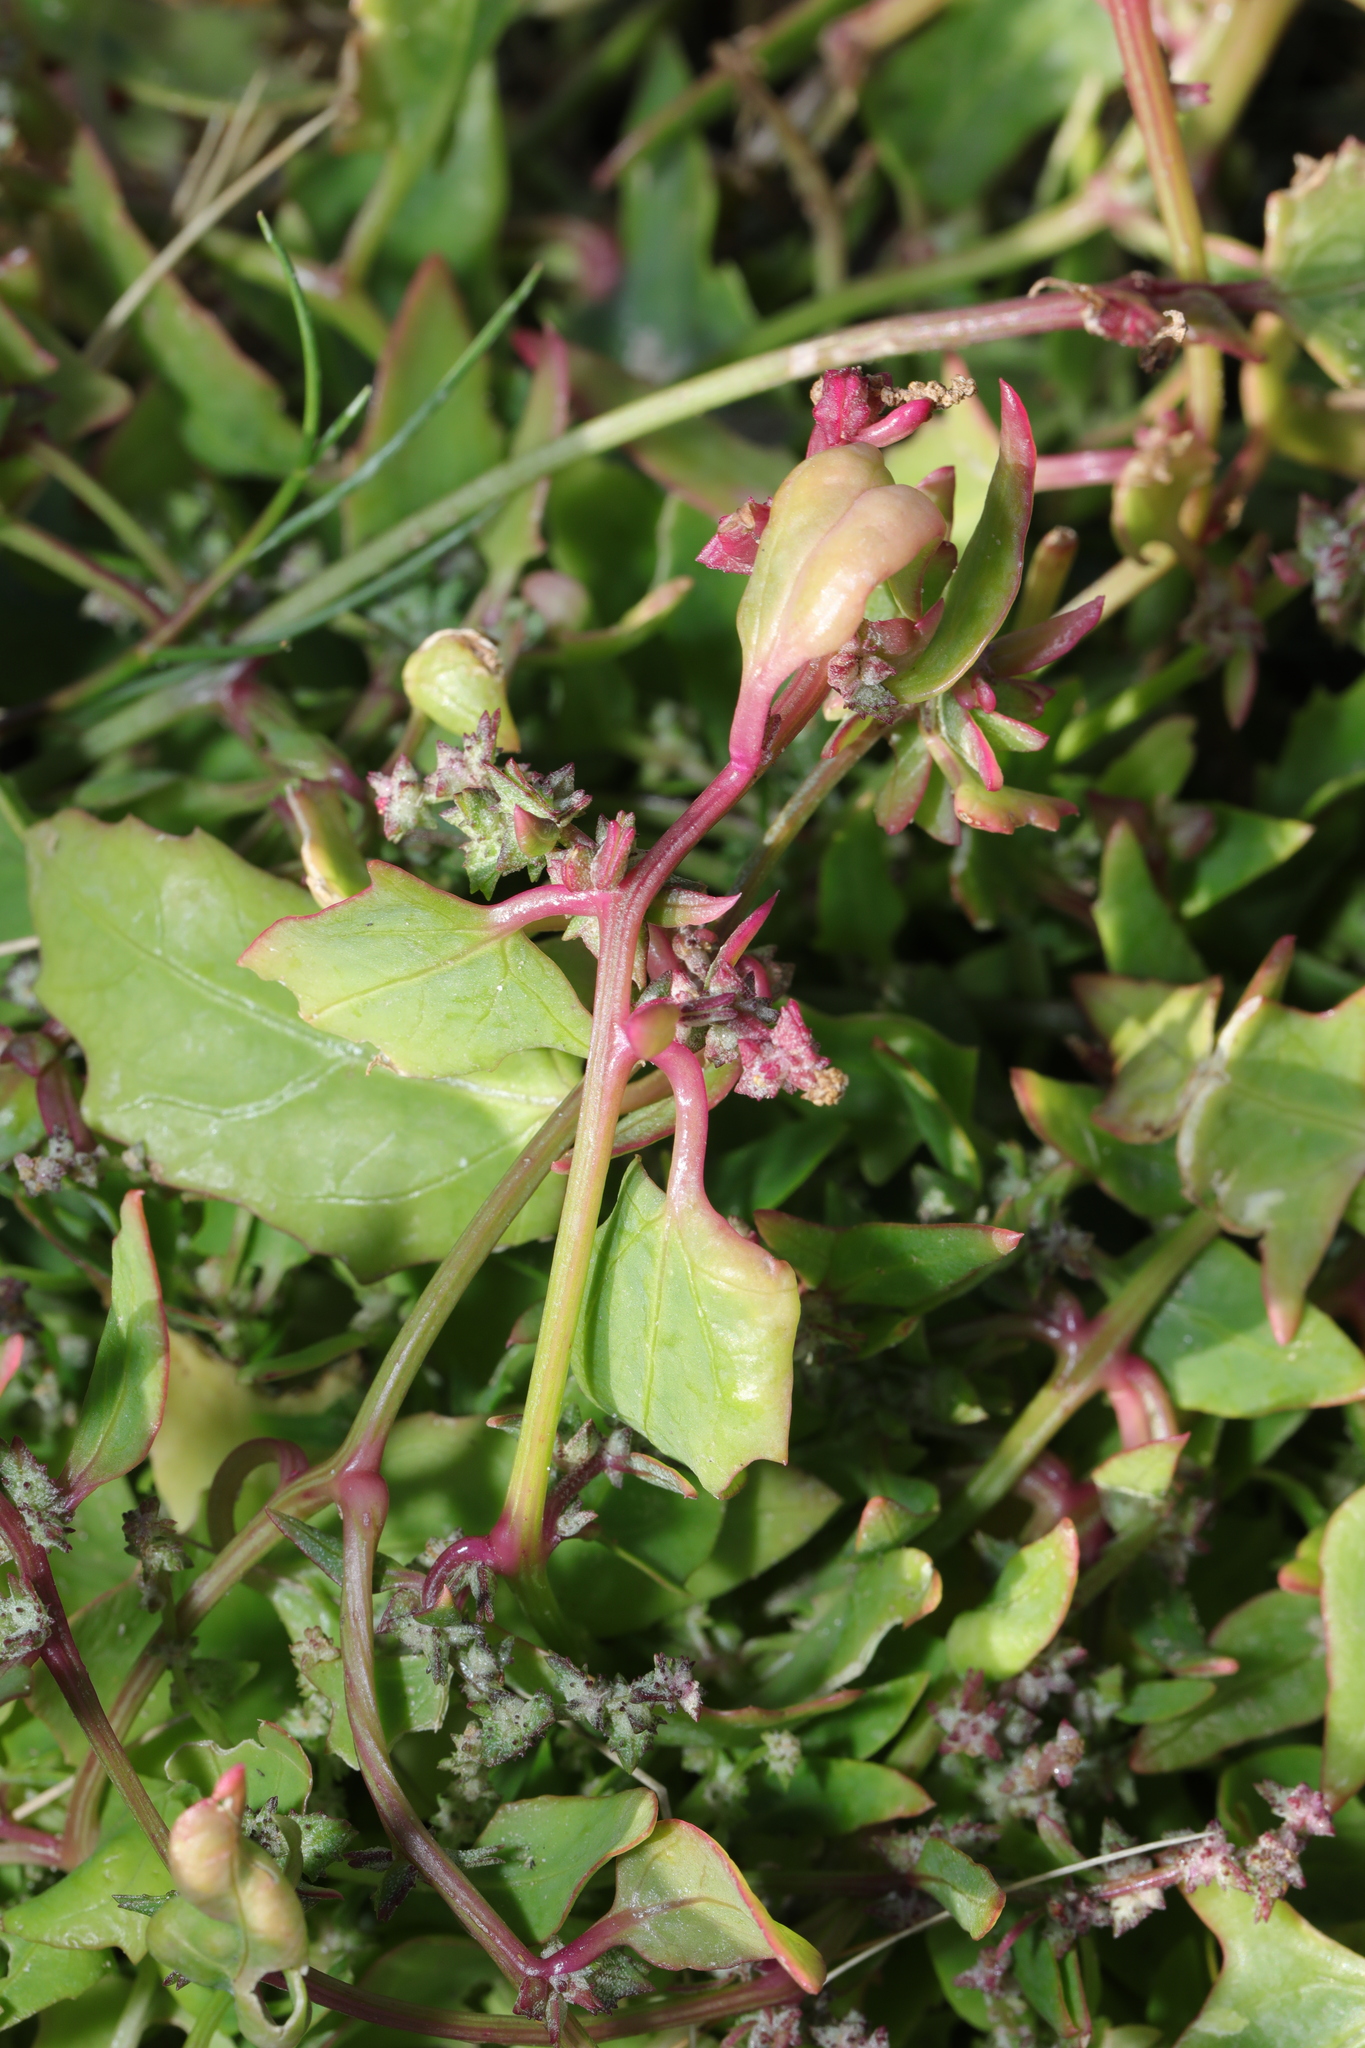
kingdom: Plantae
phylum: Tracheophyta
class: Magnoliopsida
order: Caryophyllales
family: Amaranthaceae
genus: Atriplex
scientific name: Atriplex prostrata
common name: Spear-leaved orache
